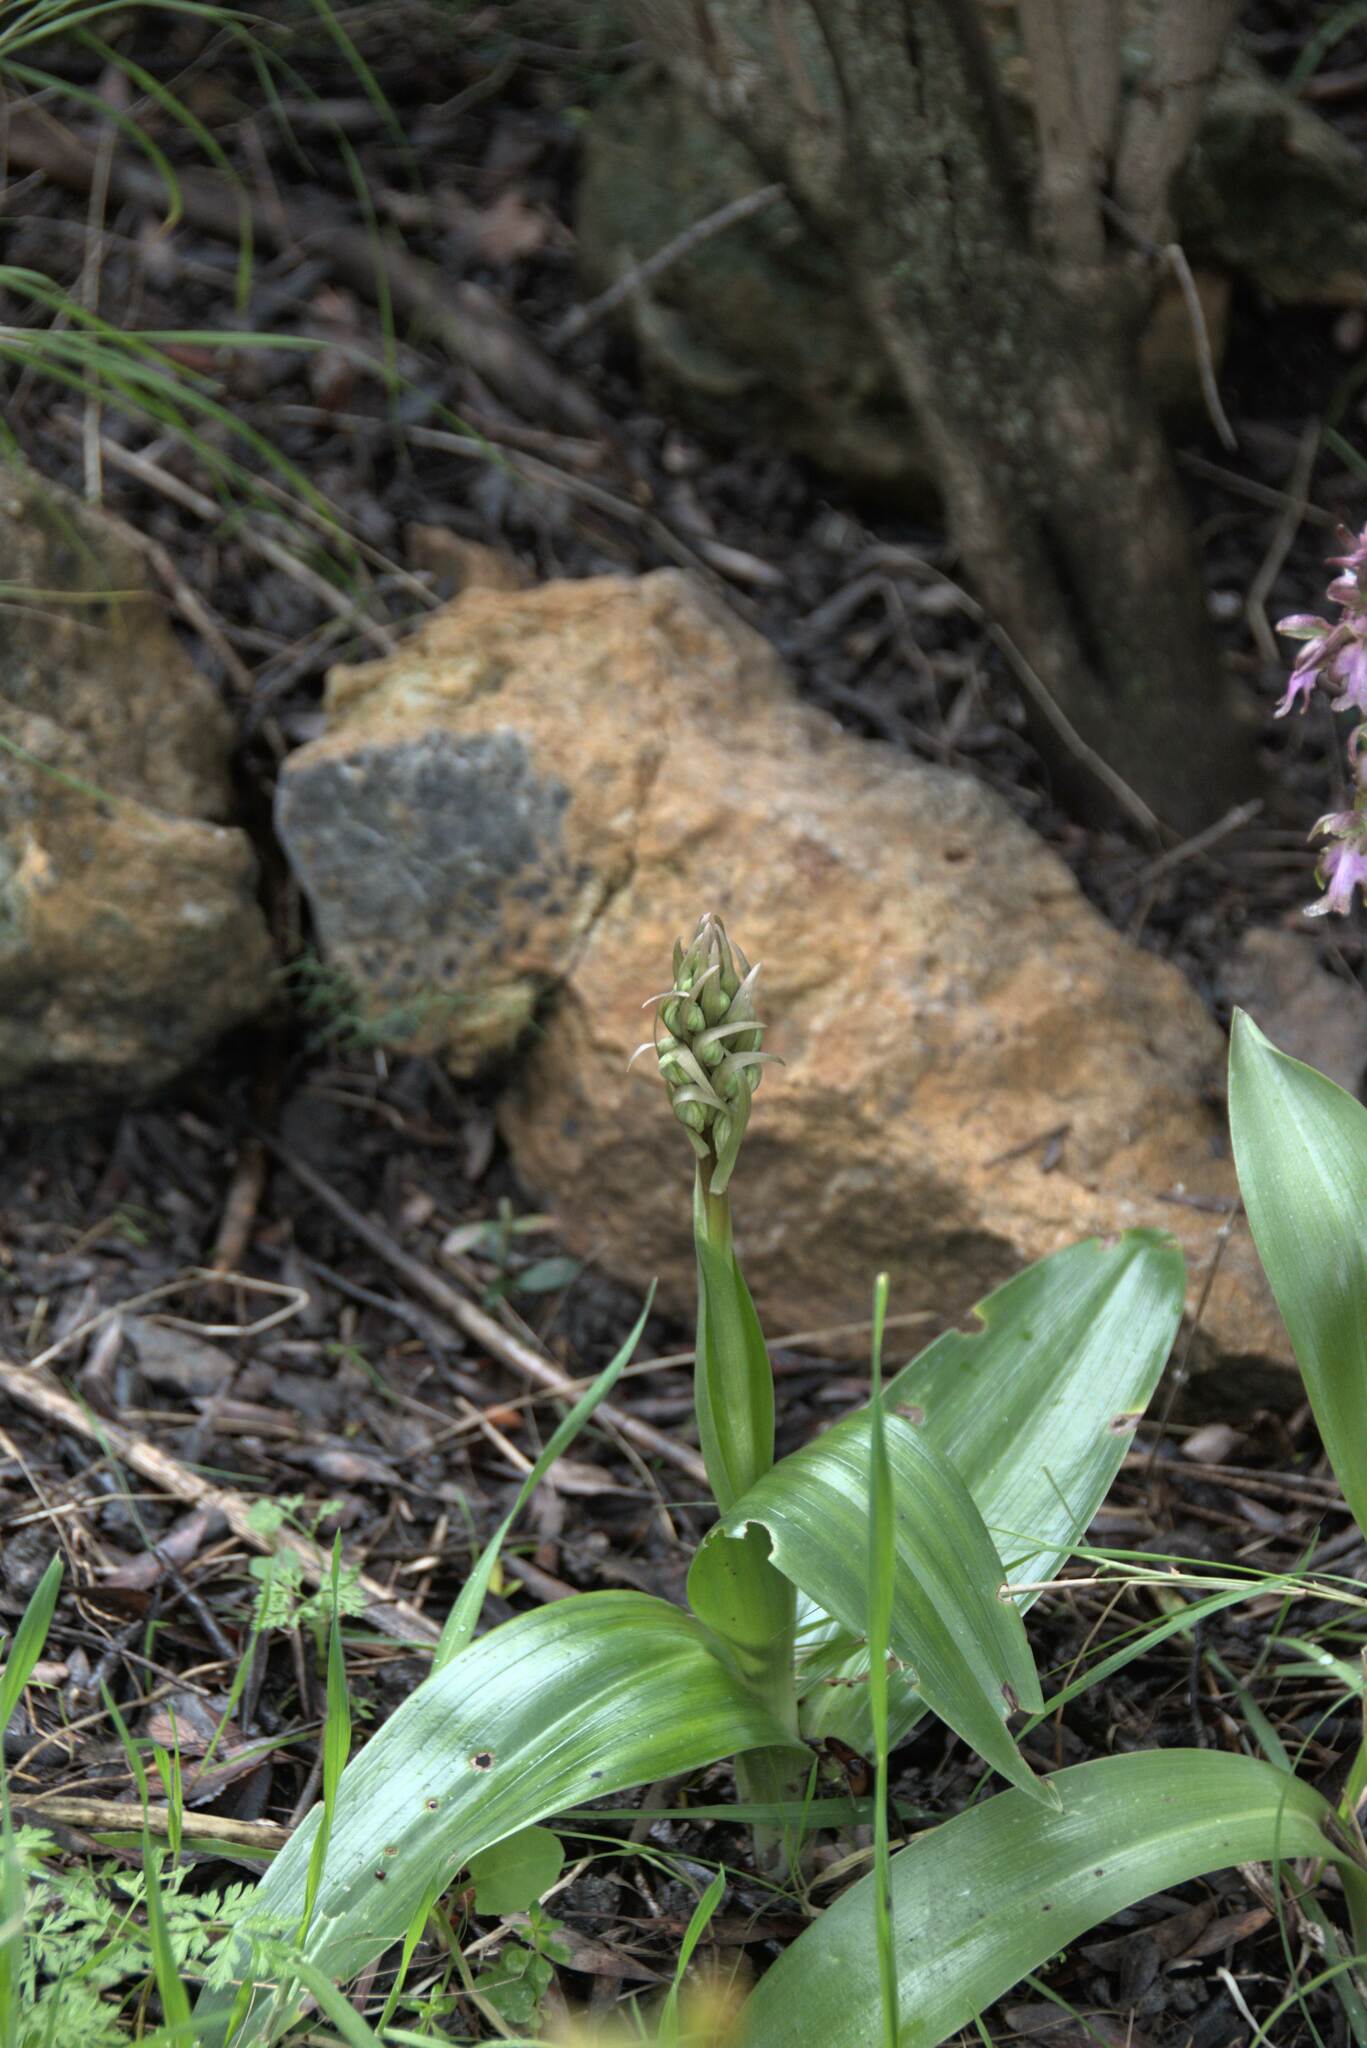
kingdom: Plantae
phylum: Tracheophyta
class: Liliopsida
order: Asparagales
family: Orchidaceae
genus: Himantoglossum
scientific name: Himantoglossum robertianum
